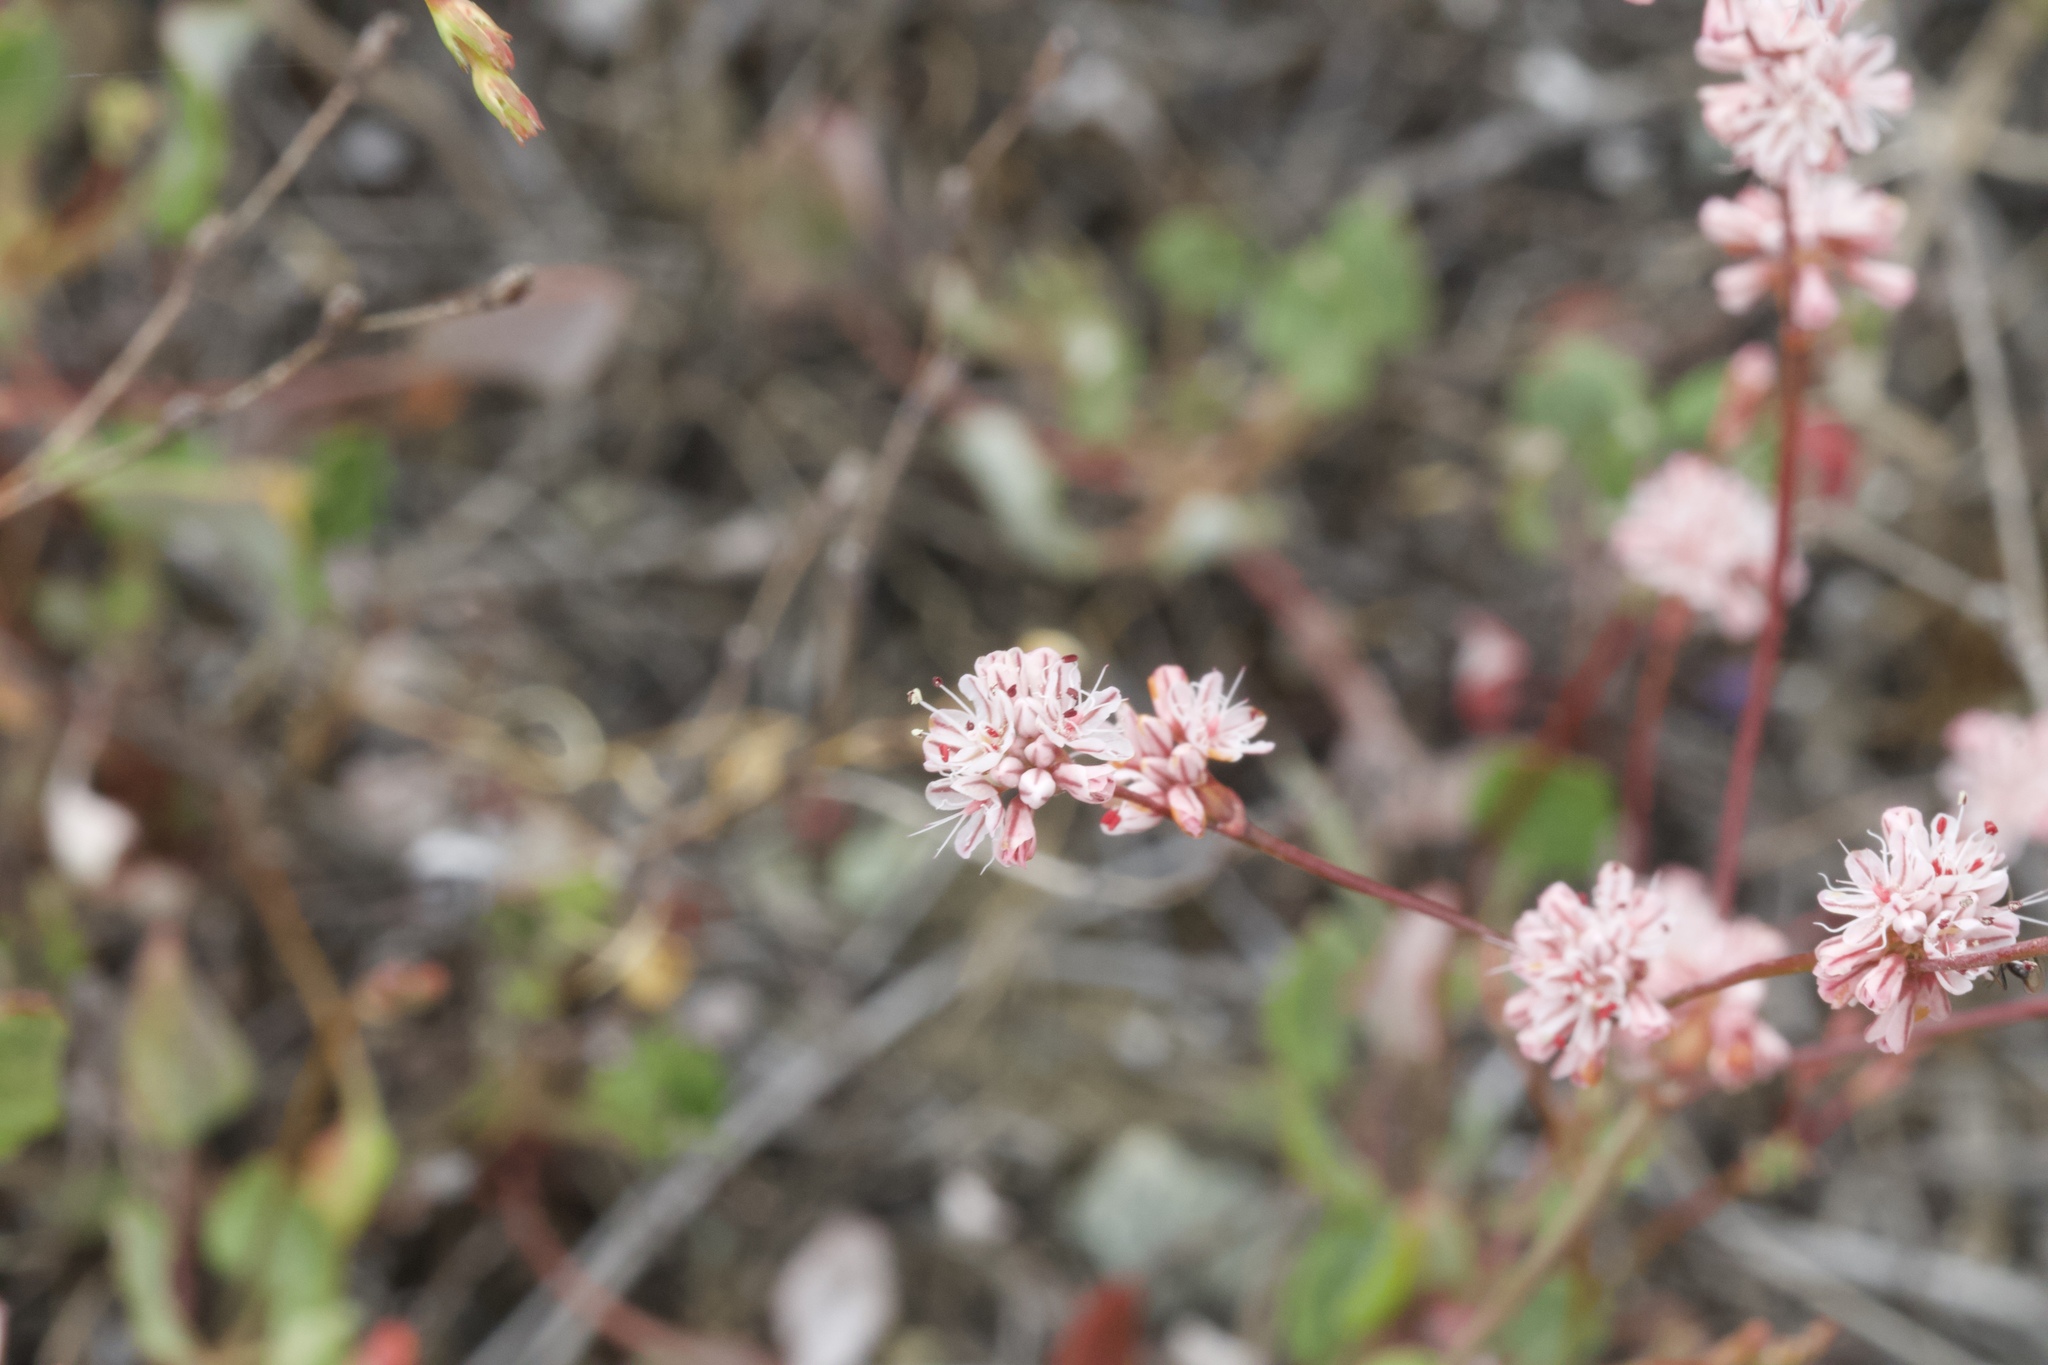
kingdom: Plantae
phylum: Tracheophyta
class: Magnoliopsida
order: Caryophyllales
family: Polygonaceae
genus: Eriogonum
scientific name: Eriogonum luteolum
